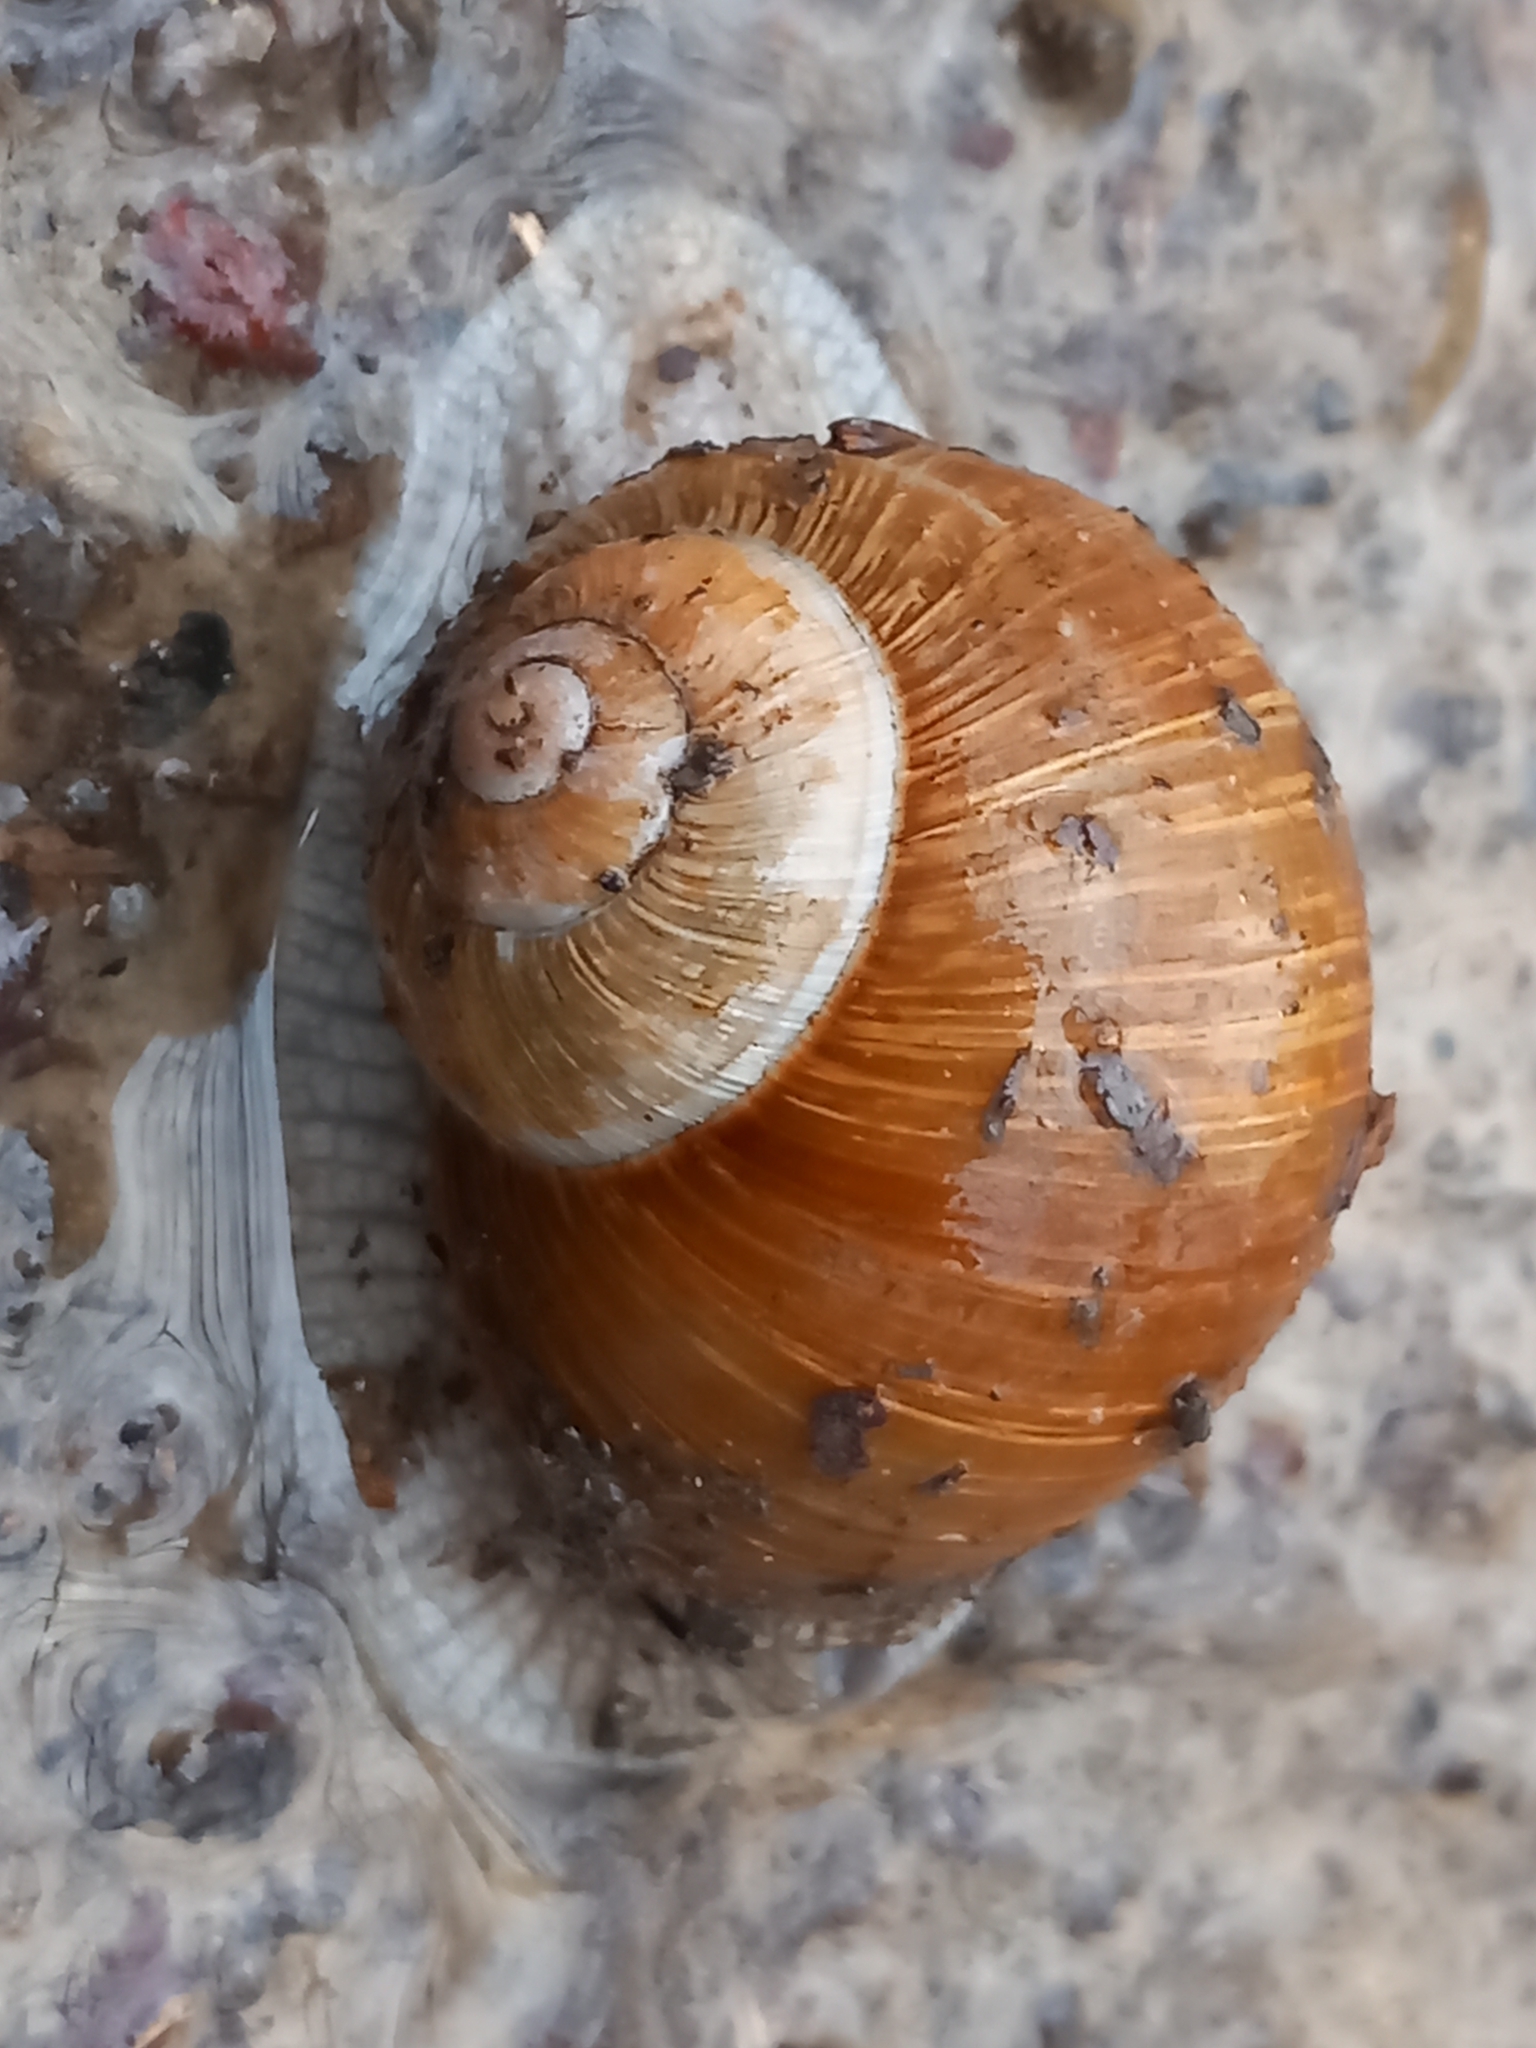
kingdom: Animalia
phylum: Mollusca
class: Gastropoda
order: Stylommatophora
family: Helicidae
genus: Helix
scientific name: Helix pomatia
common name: Roman snail
